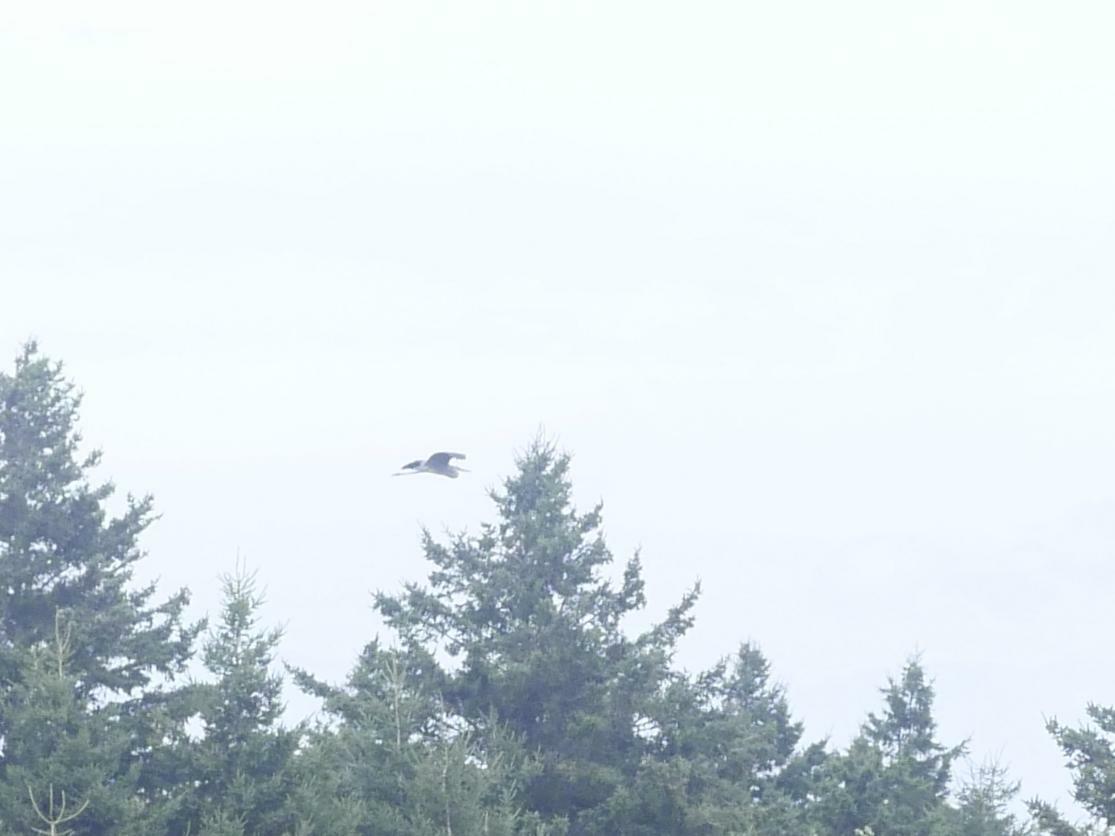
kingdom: Animalia
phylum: Chordata
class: Aves
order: Pelecaniformes
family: Ardeidae
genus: Ardea
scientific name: Ardea herodias
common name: Great blue heron
